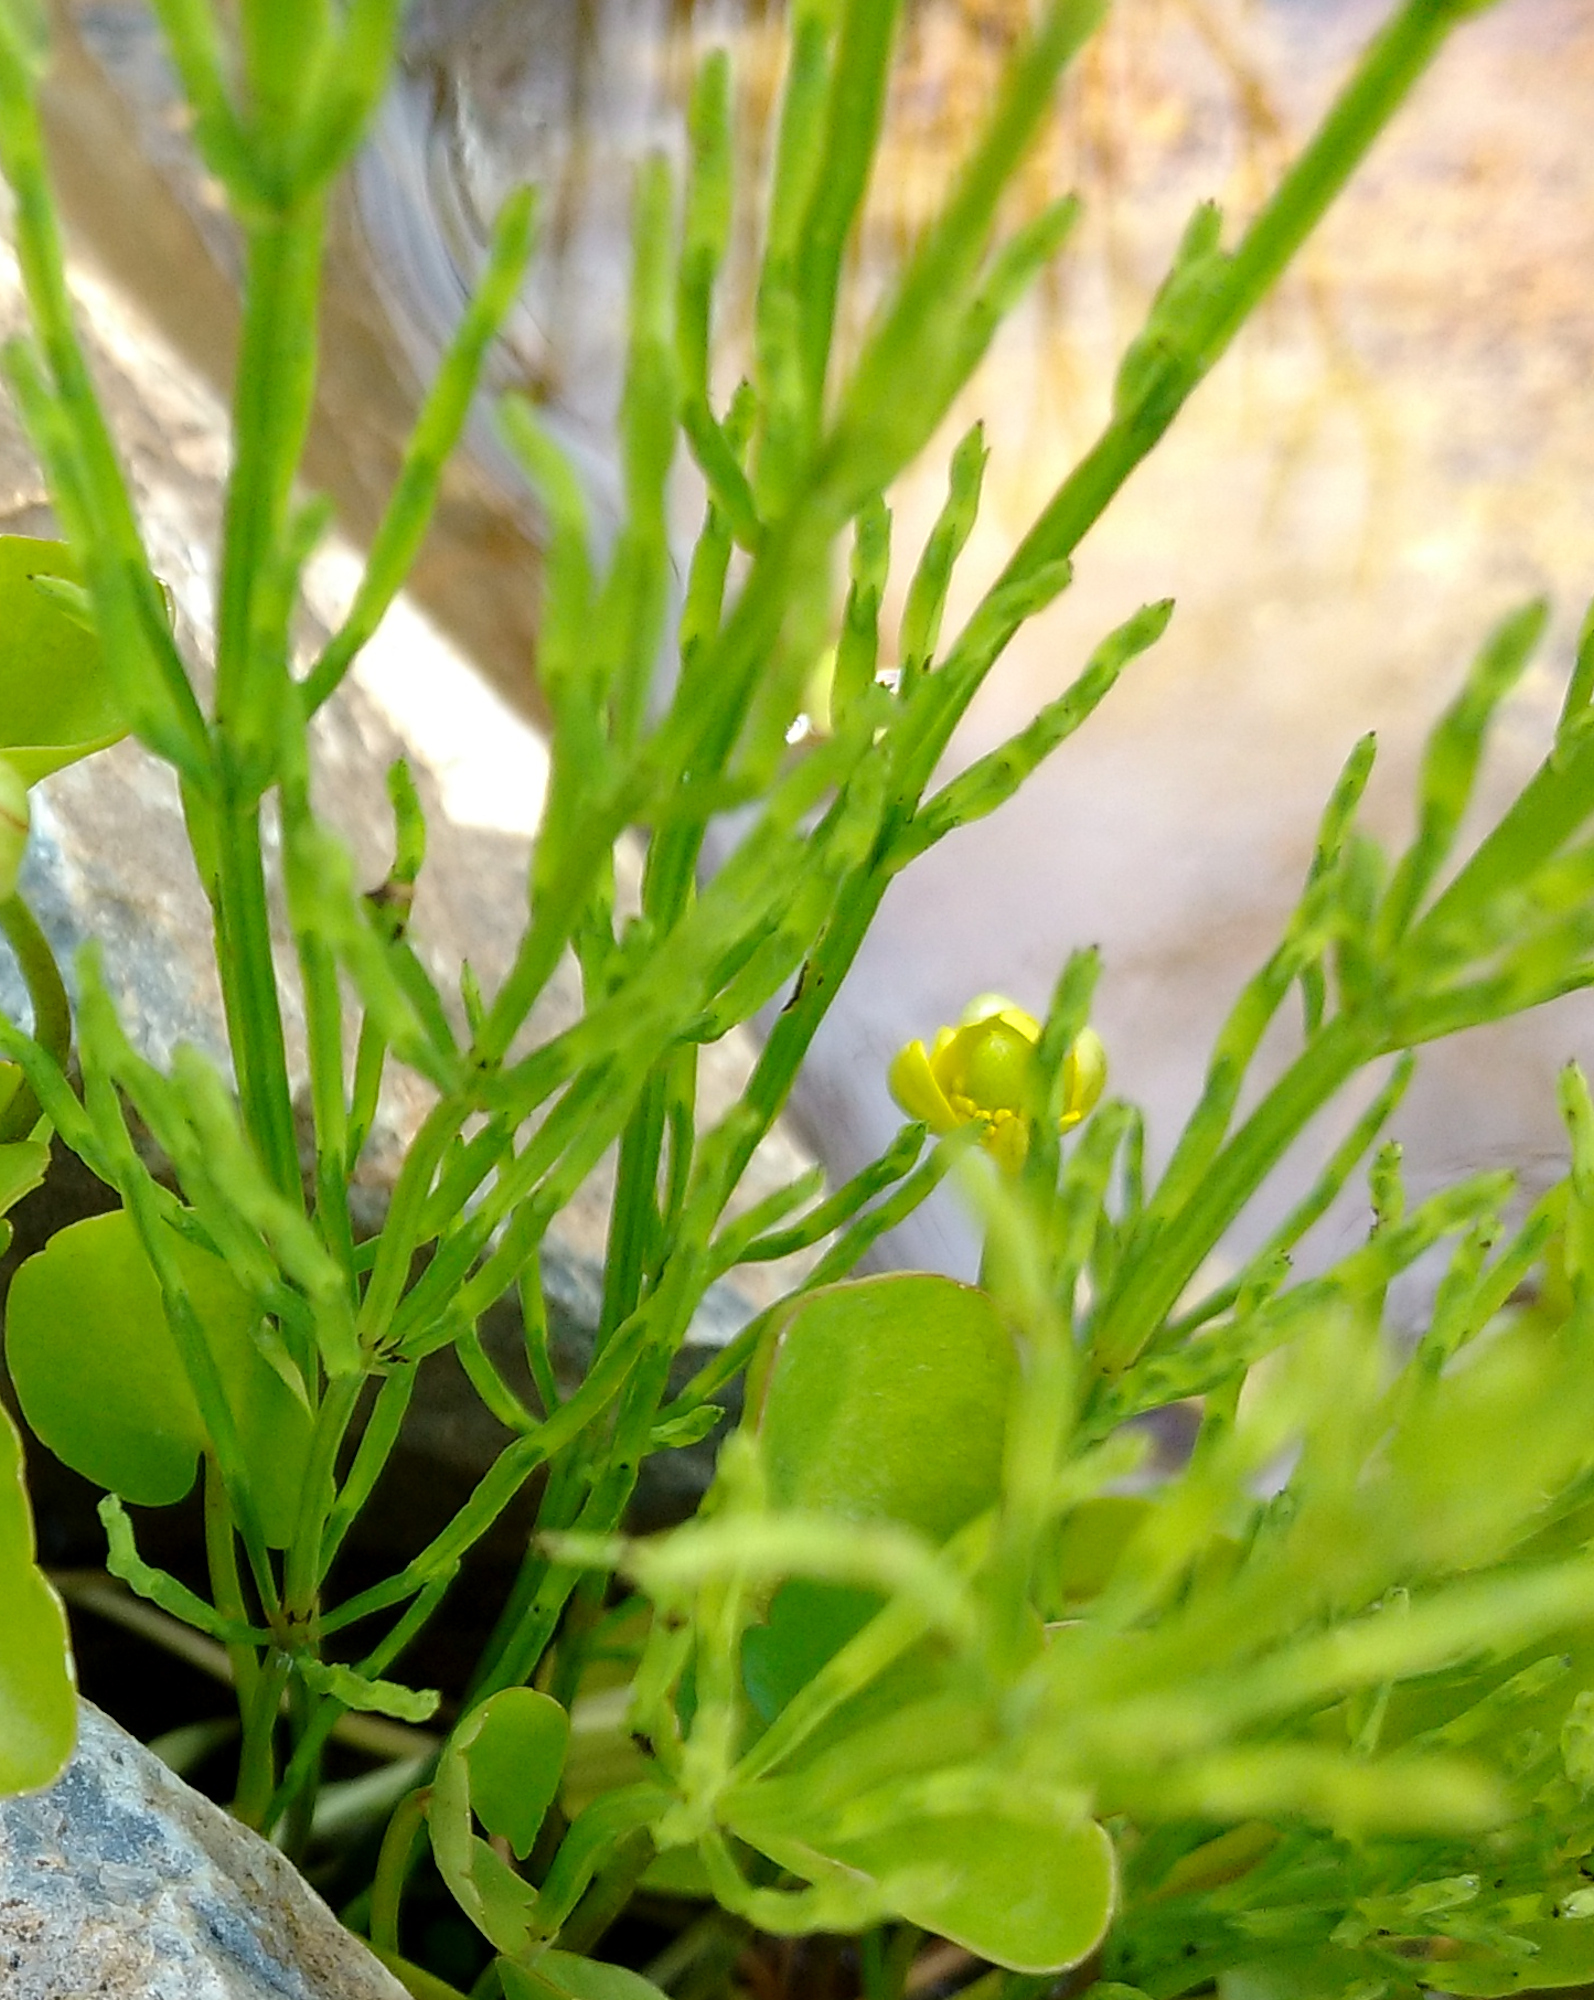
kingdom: Plantae
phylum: Tracheophyta
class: Polypodiopsida
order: Equisetales
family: Equisetaceae
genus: Equisetum
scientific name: Equisetum arvense
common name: Field horsetail
